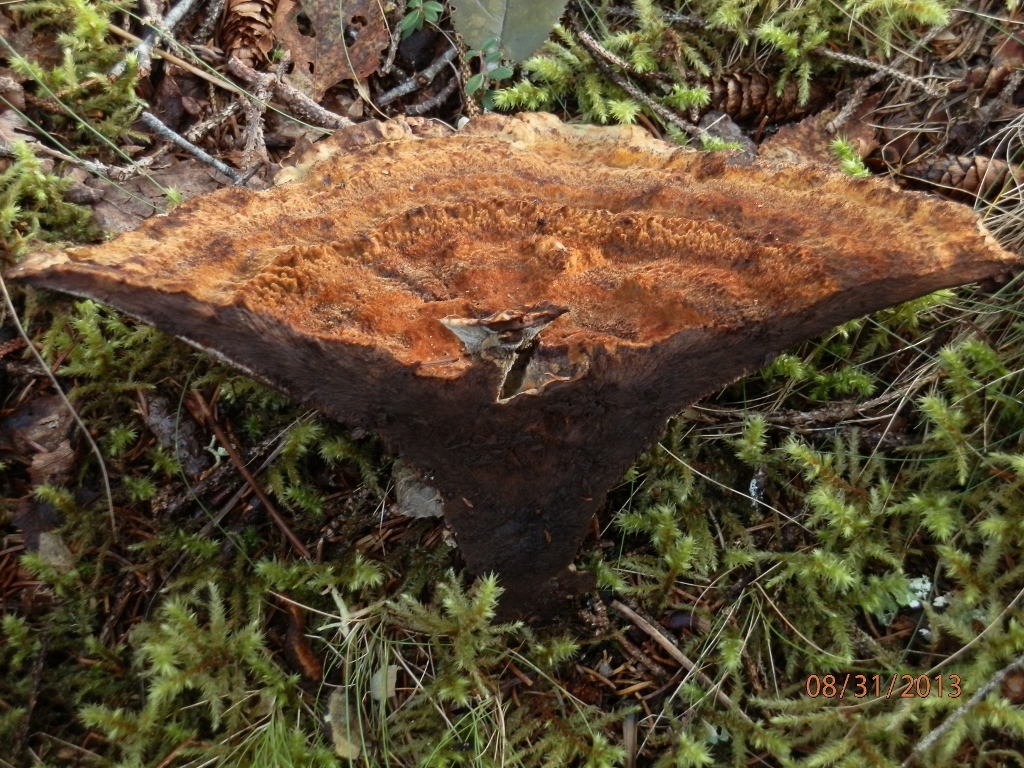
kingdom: Fungi
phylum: Basidiomycota
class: Agaricomycetes
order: Polyporales
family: Laetiporaceae
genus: Phaeolus
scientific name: Phaeolus schweinitzii
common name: Dyer's mazegill
